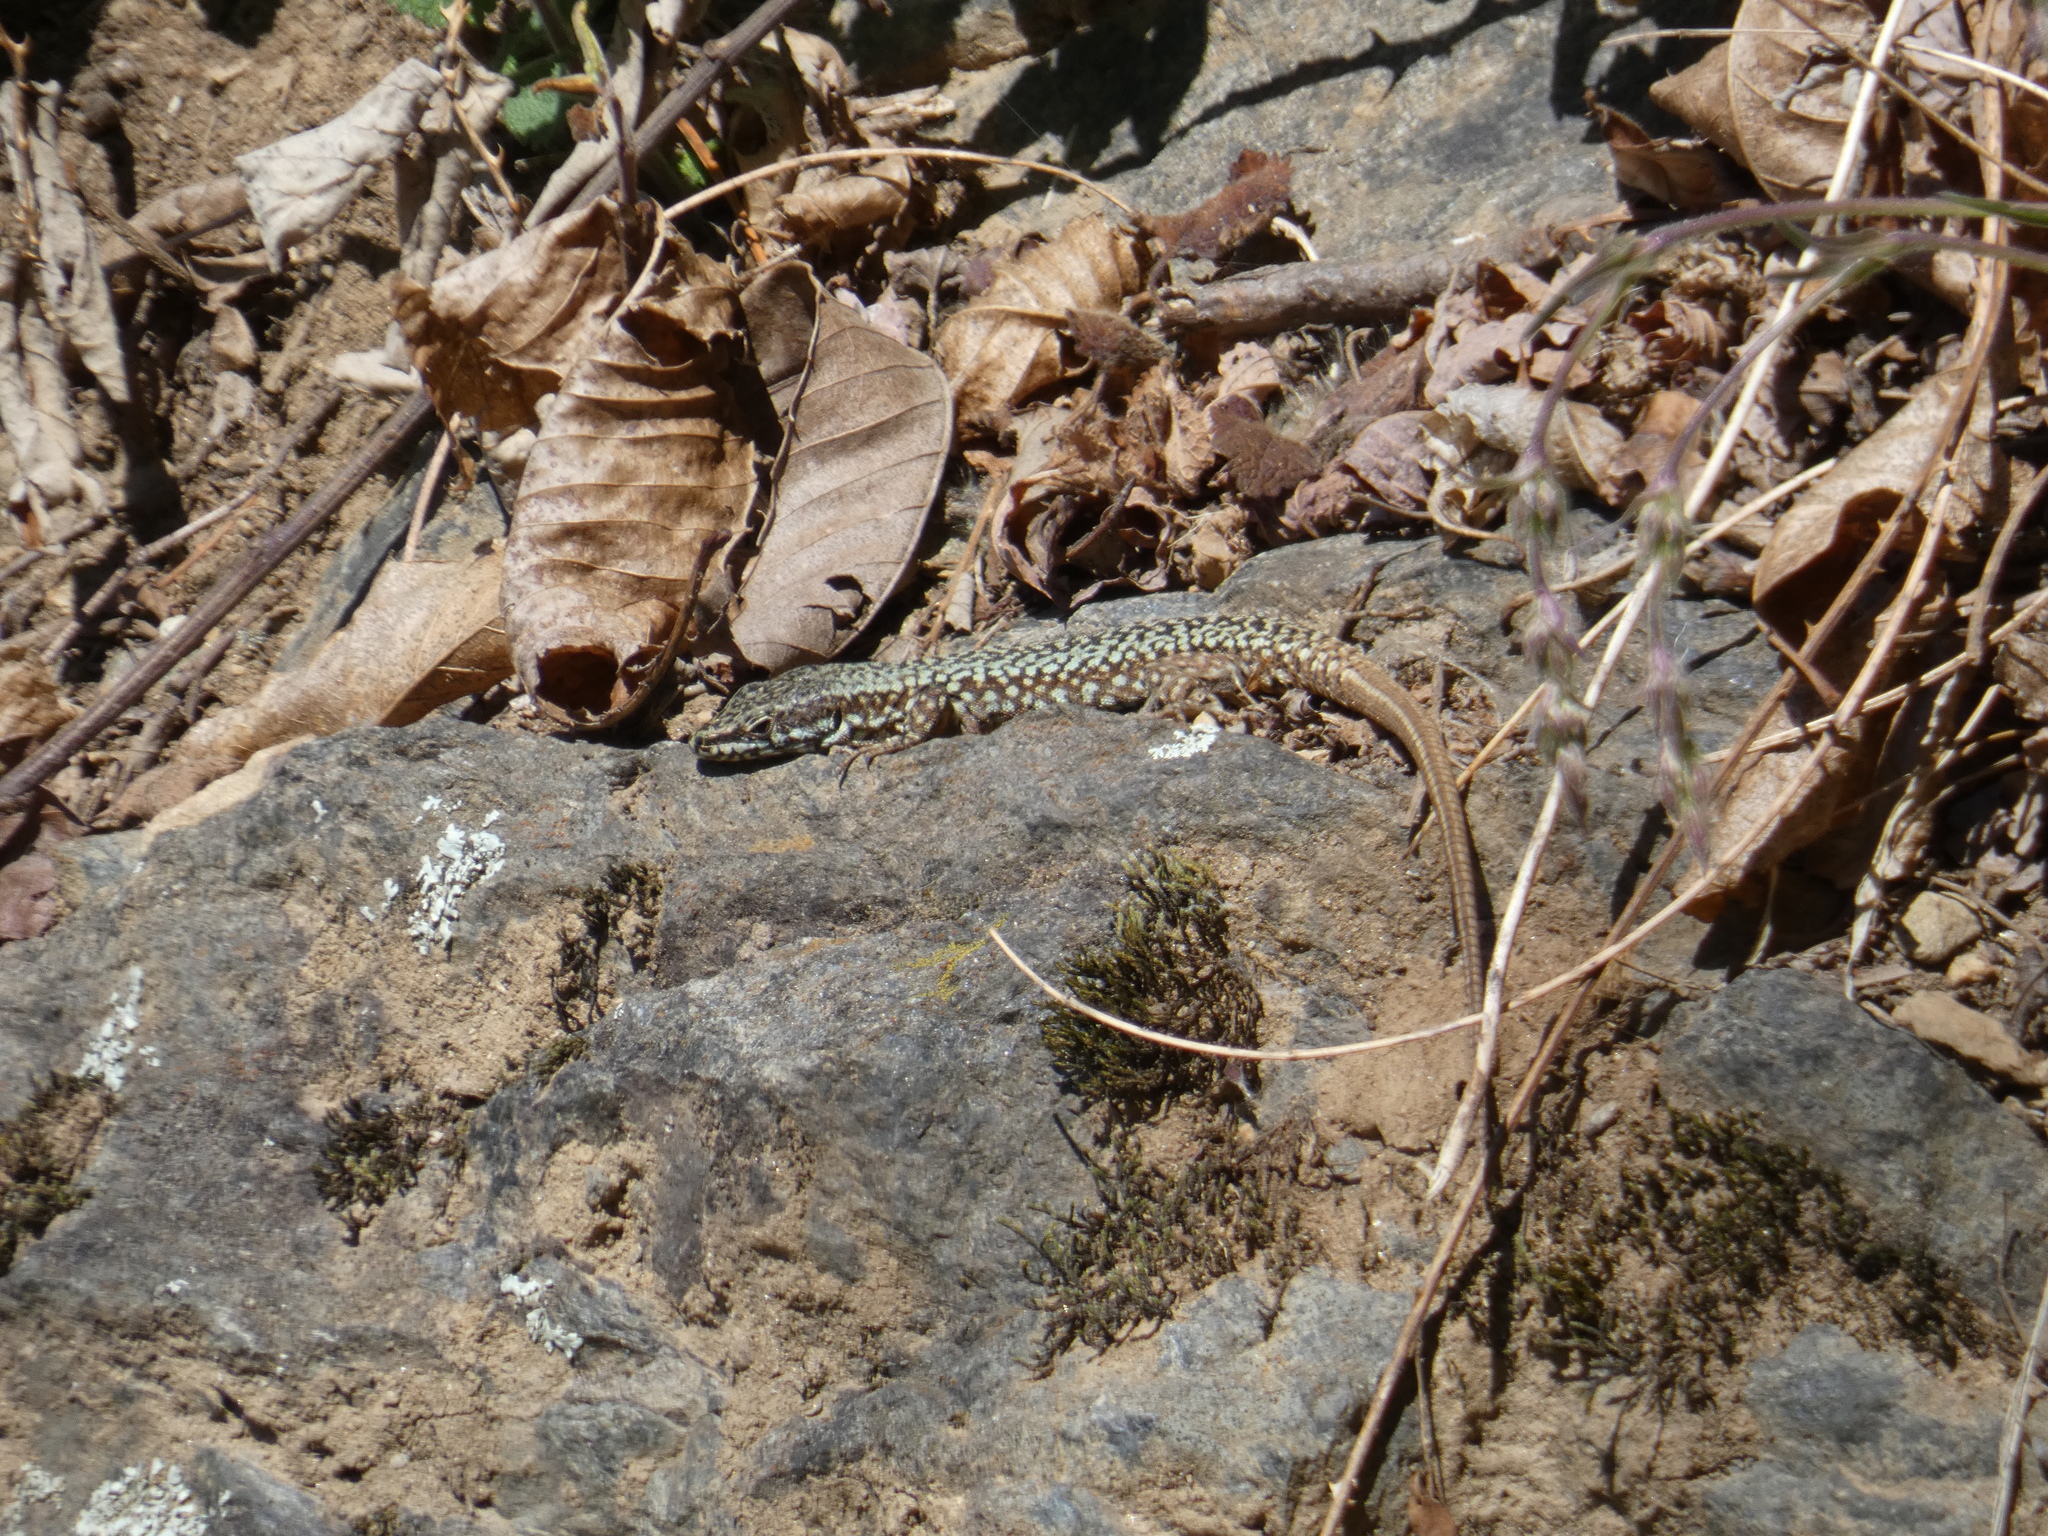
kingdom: Animalia
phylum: Chordata
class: Squamata
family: Lacertidae
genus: Podarcis
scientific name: Podarcis muralis
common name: Common wall lizard
